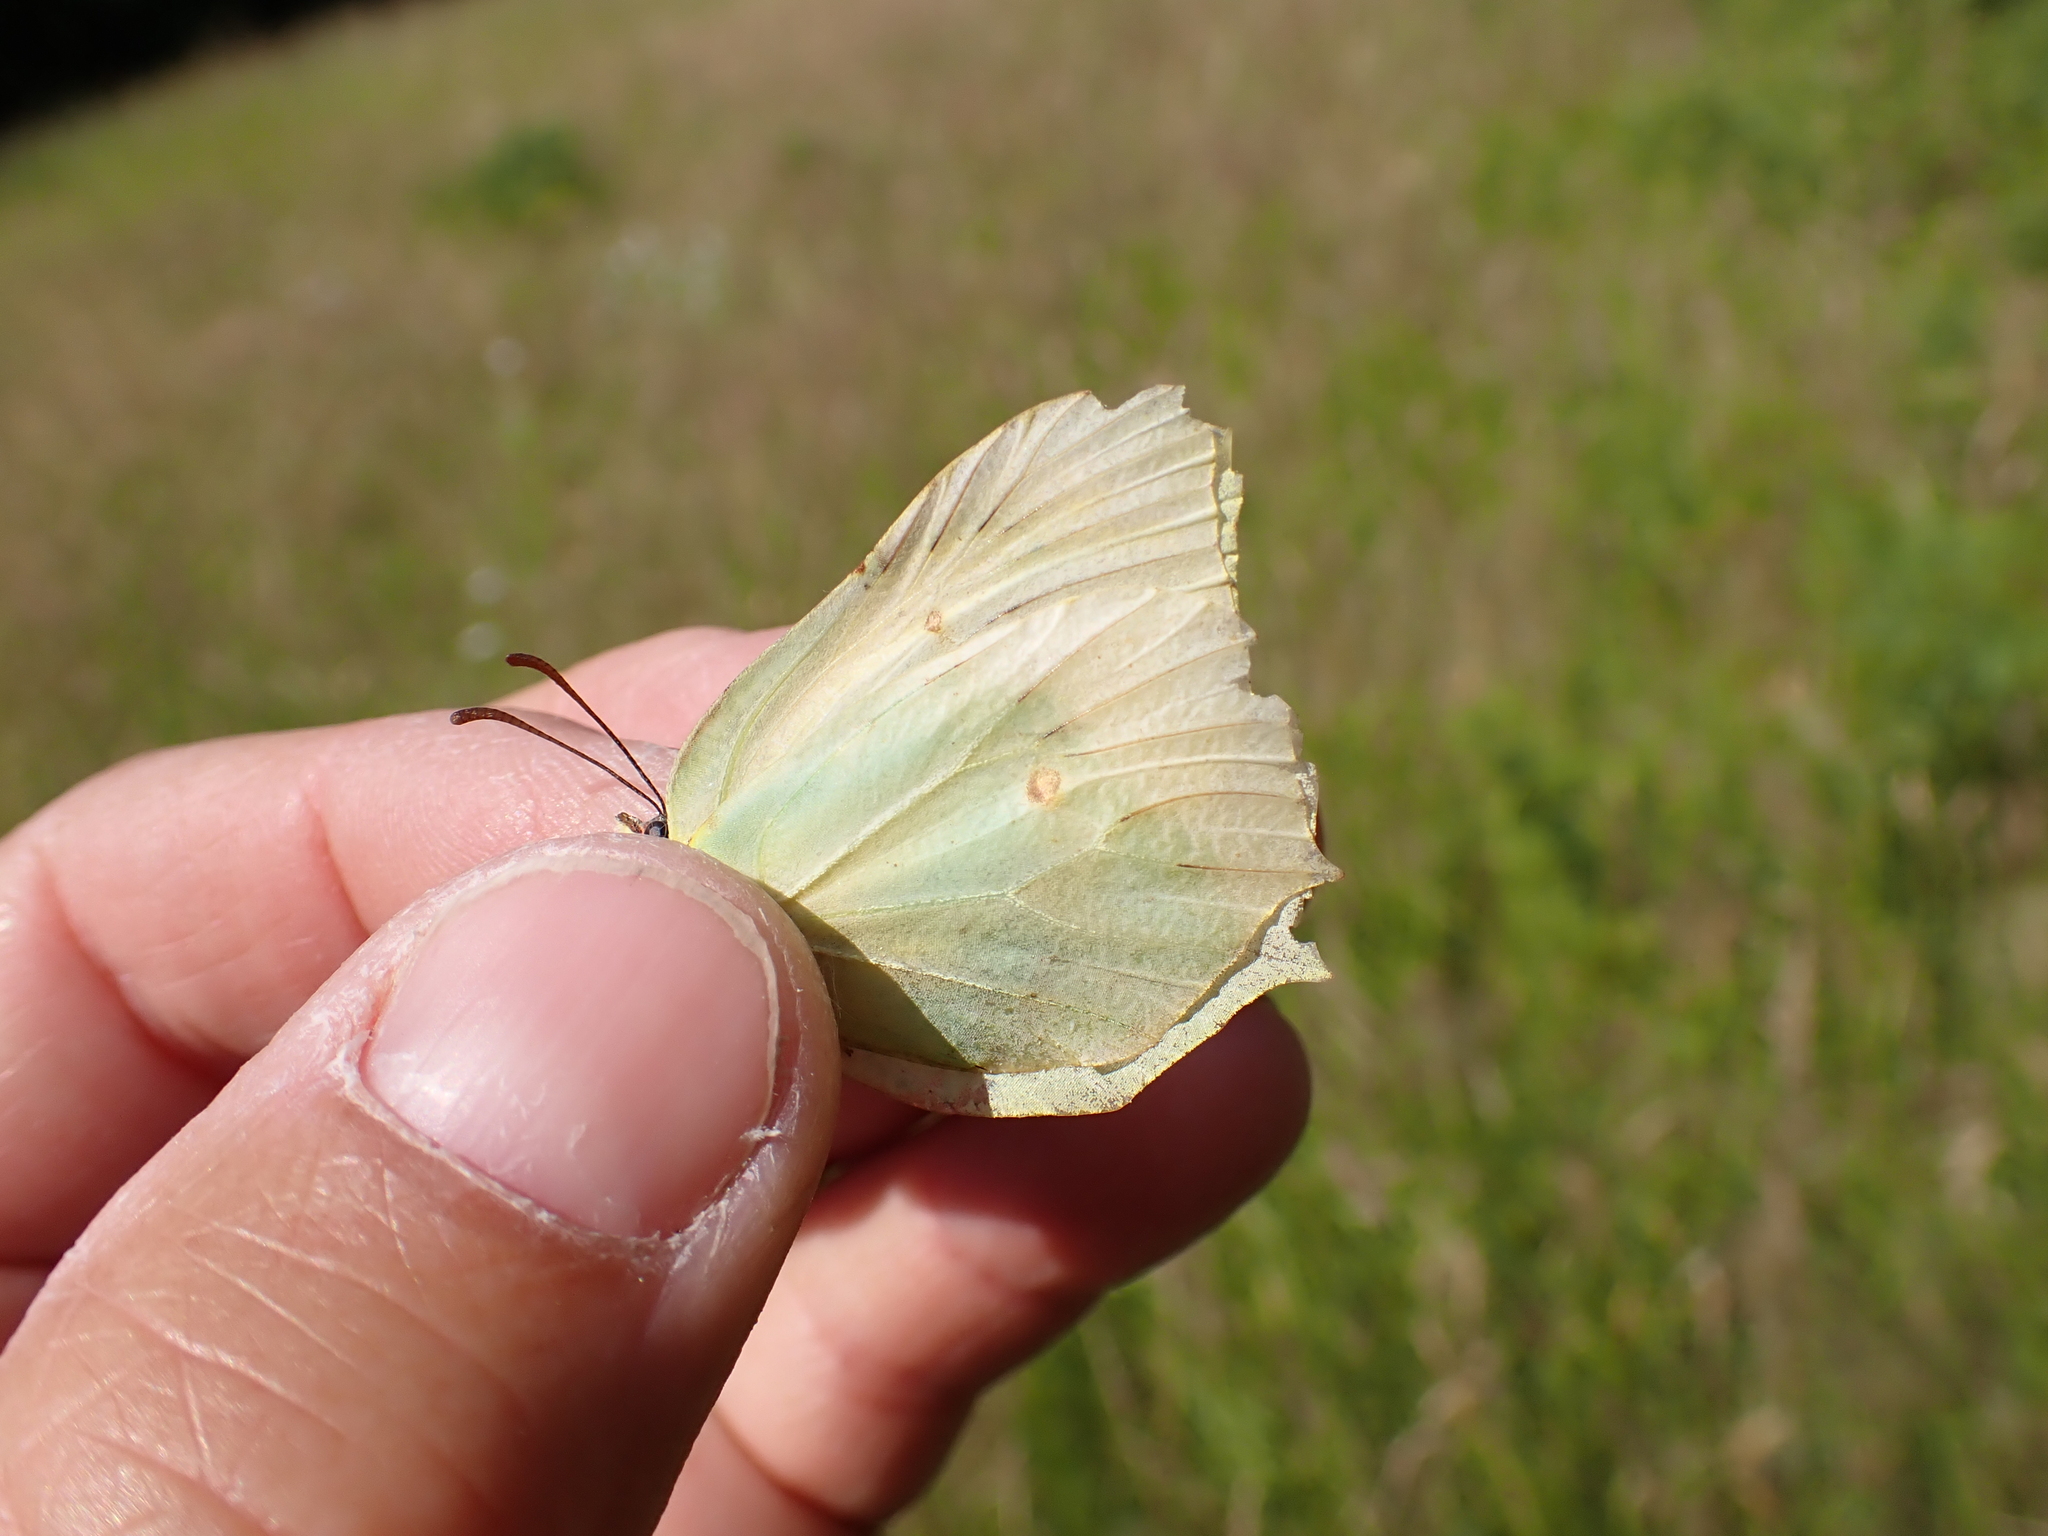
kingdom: Animalia
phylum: Arthropoda
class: Insecta
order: Lepidoptera
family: Pieridae
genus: Gonepteryx
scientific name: Gonepteryx rhamni
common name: Brimstone
